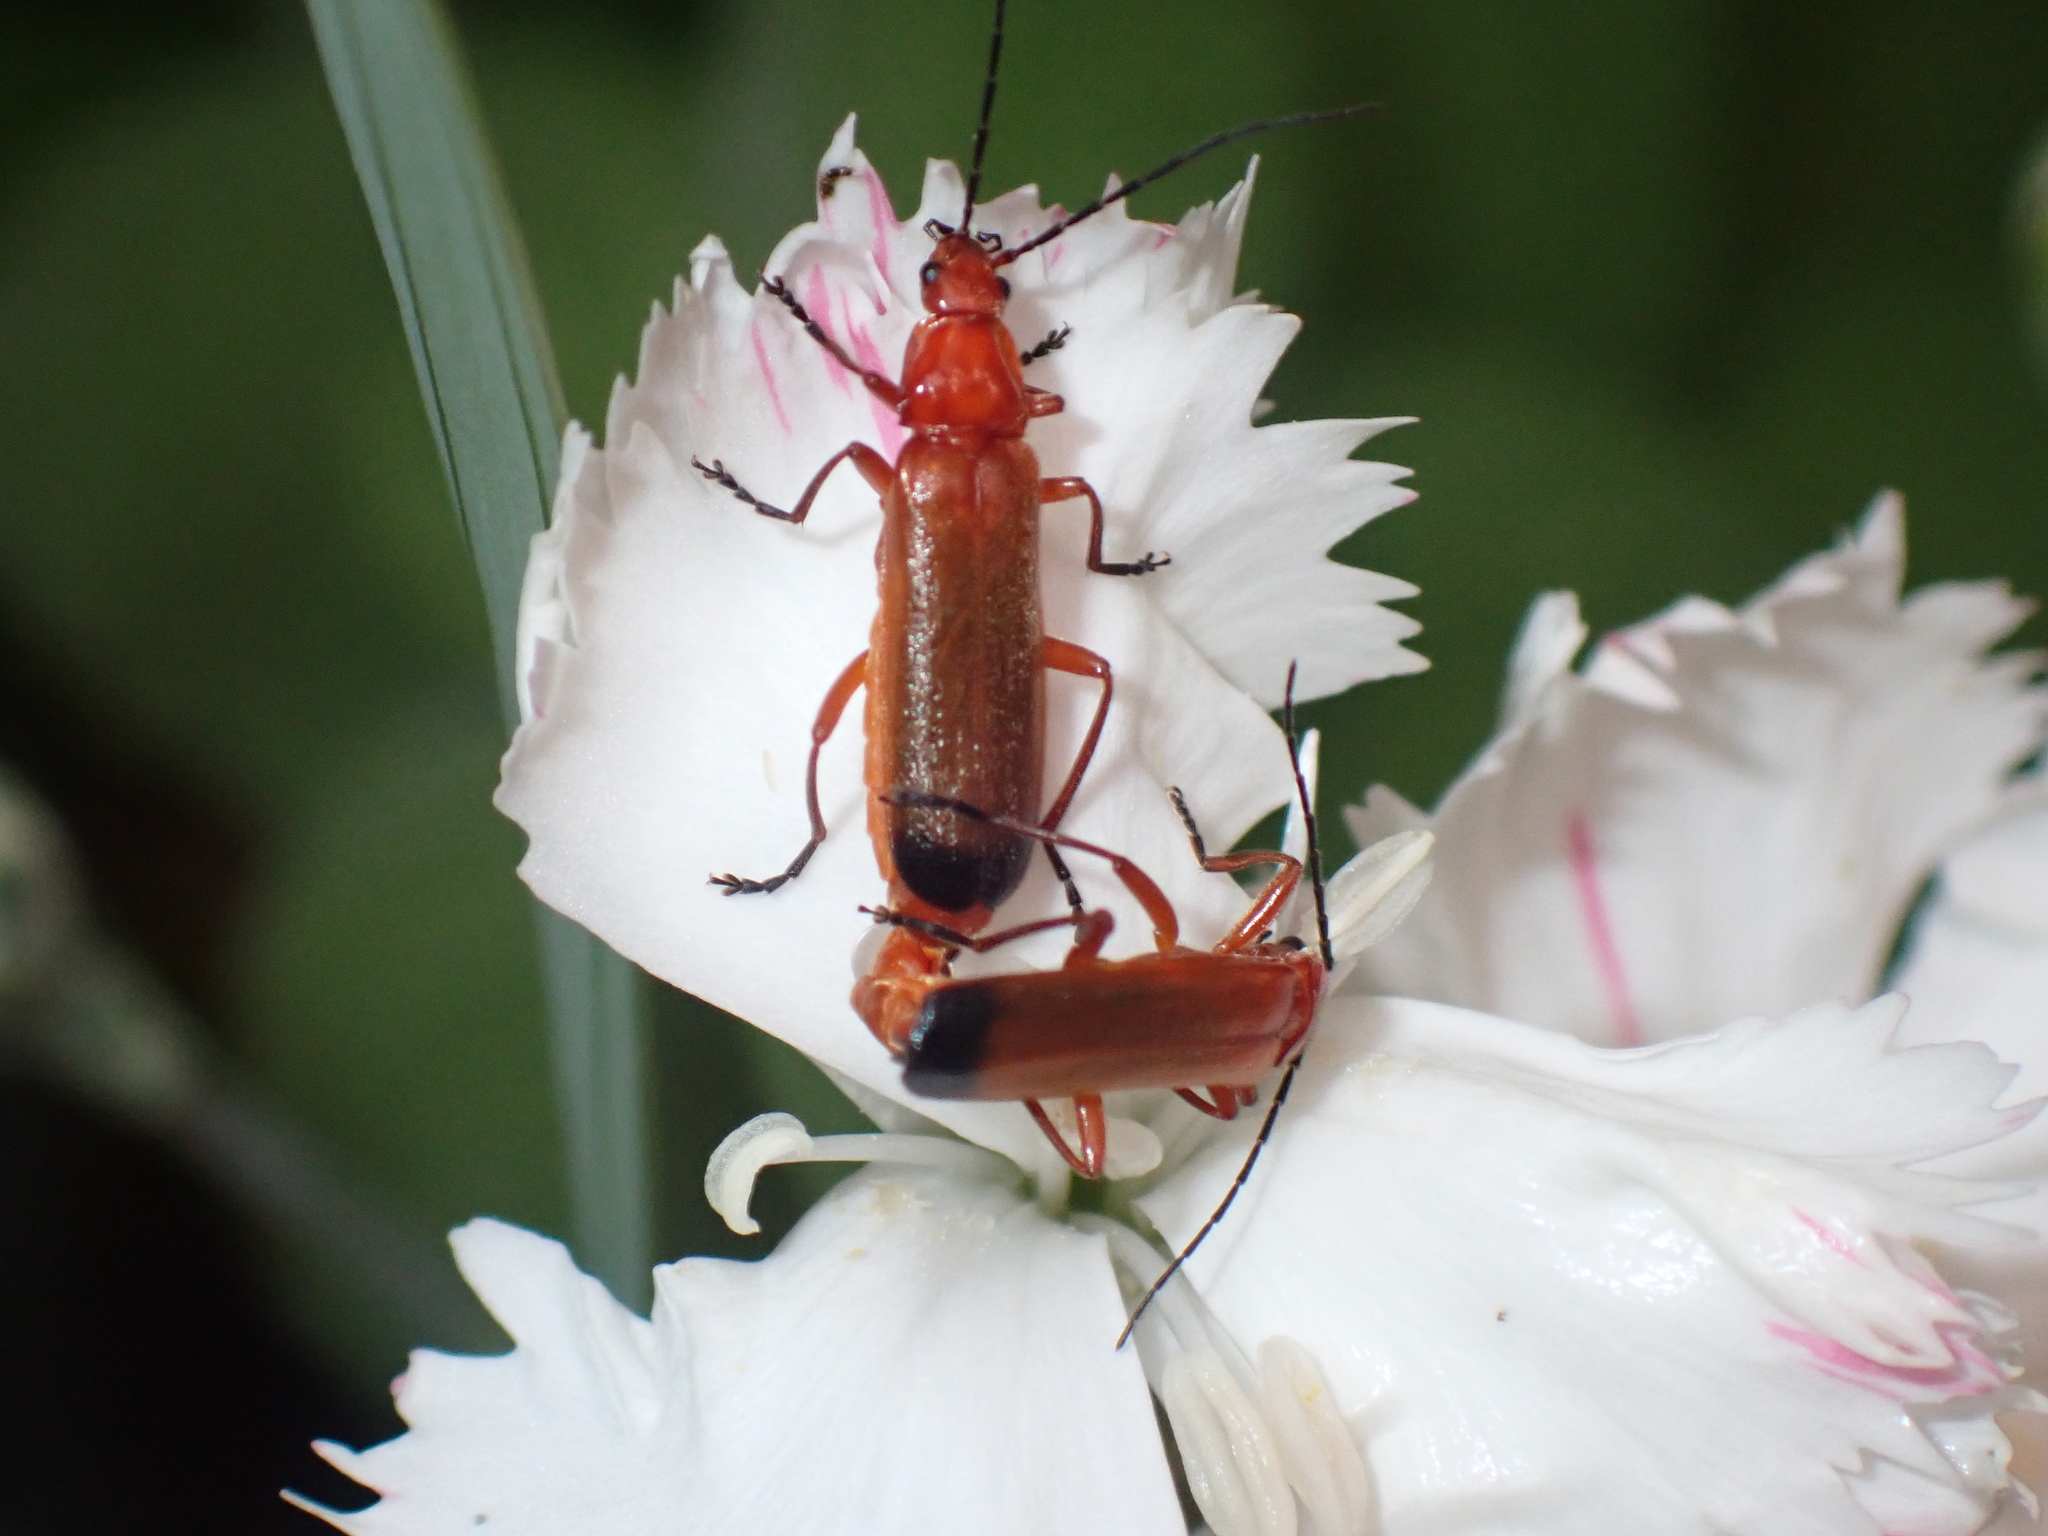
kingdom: Animalia
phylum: Arthropoda
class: Insecta
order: Coleoptera
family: Cantharidae
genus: Rhagonycha
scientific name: Rhagonycha fulva
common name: Common red soldier beetle
